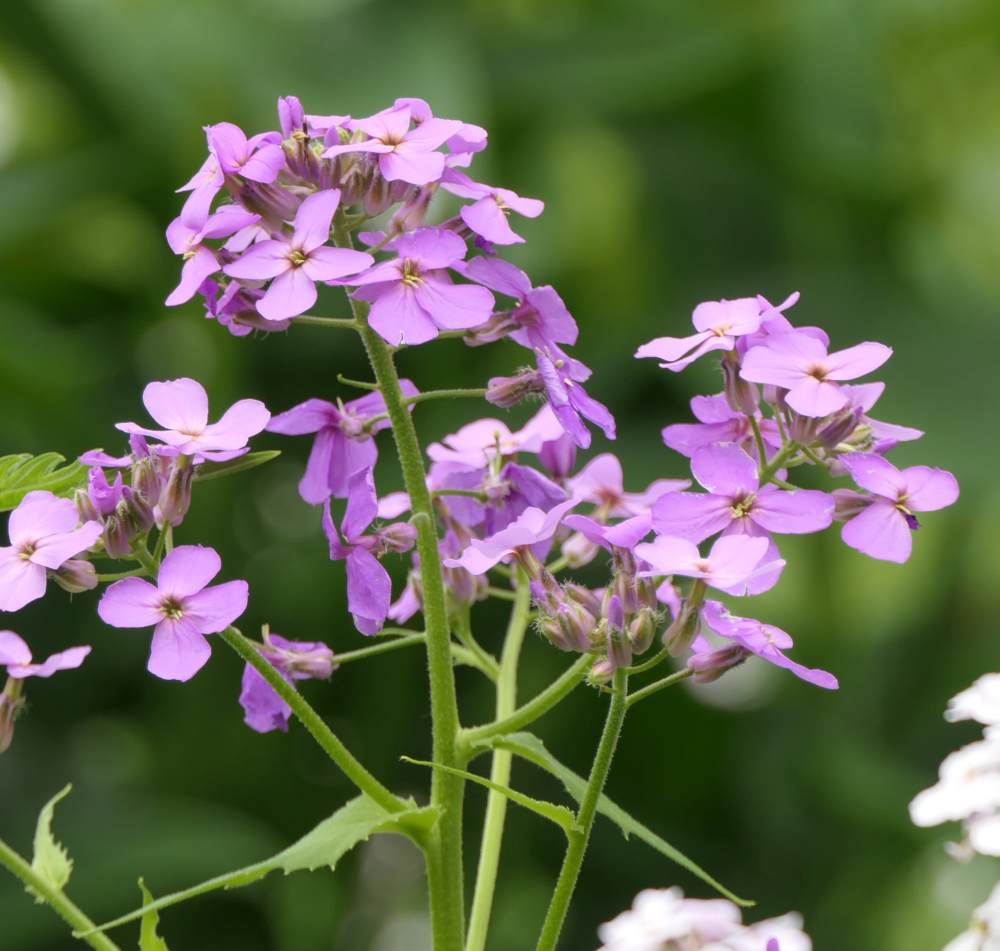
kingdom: Plantae
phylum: Tracheophyta
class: Magnoliopsida
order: Brassicales
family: Brassicaceae
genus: Hesperis
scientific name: Hesperis matronalis
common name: Dame's-violet
